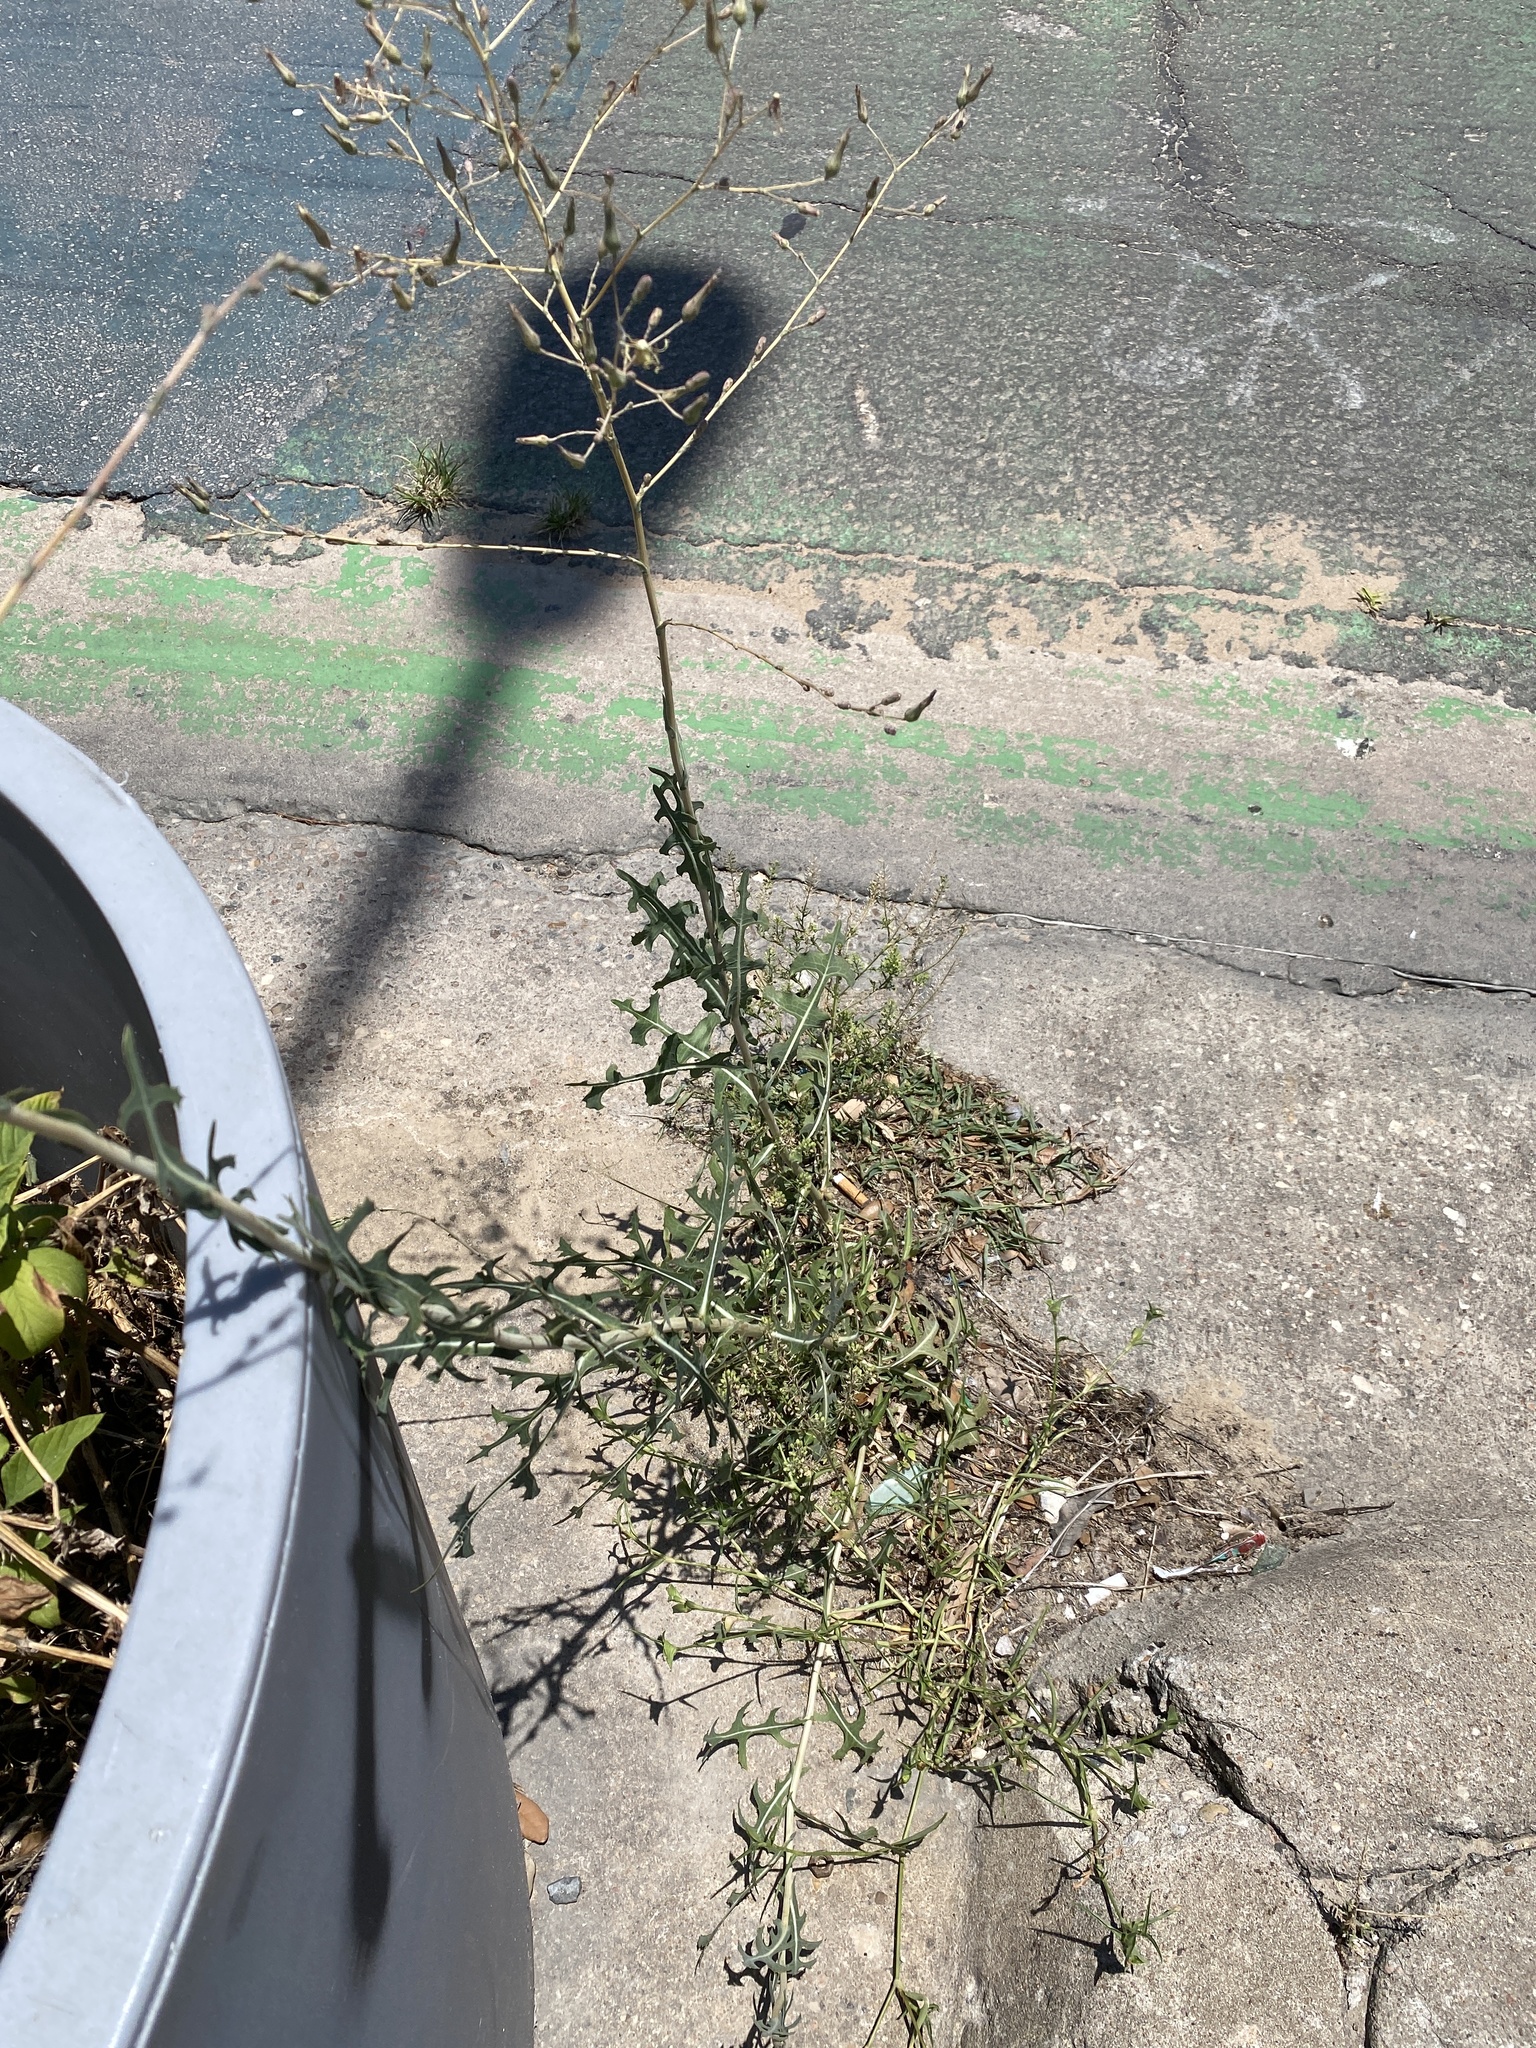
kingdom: Plantae
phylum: Tracheophyta
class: Magnoliopsida
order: Asterales
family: Asteraceae
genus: Lactuca
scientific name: Lactuca serriola
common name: Prickly lettuce
